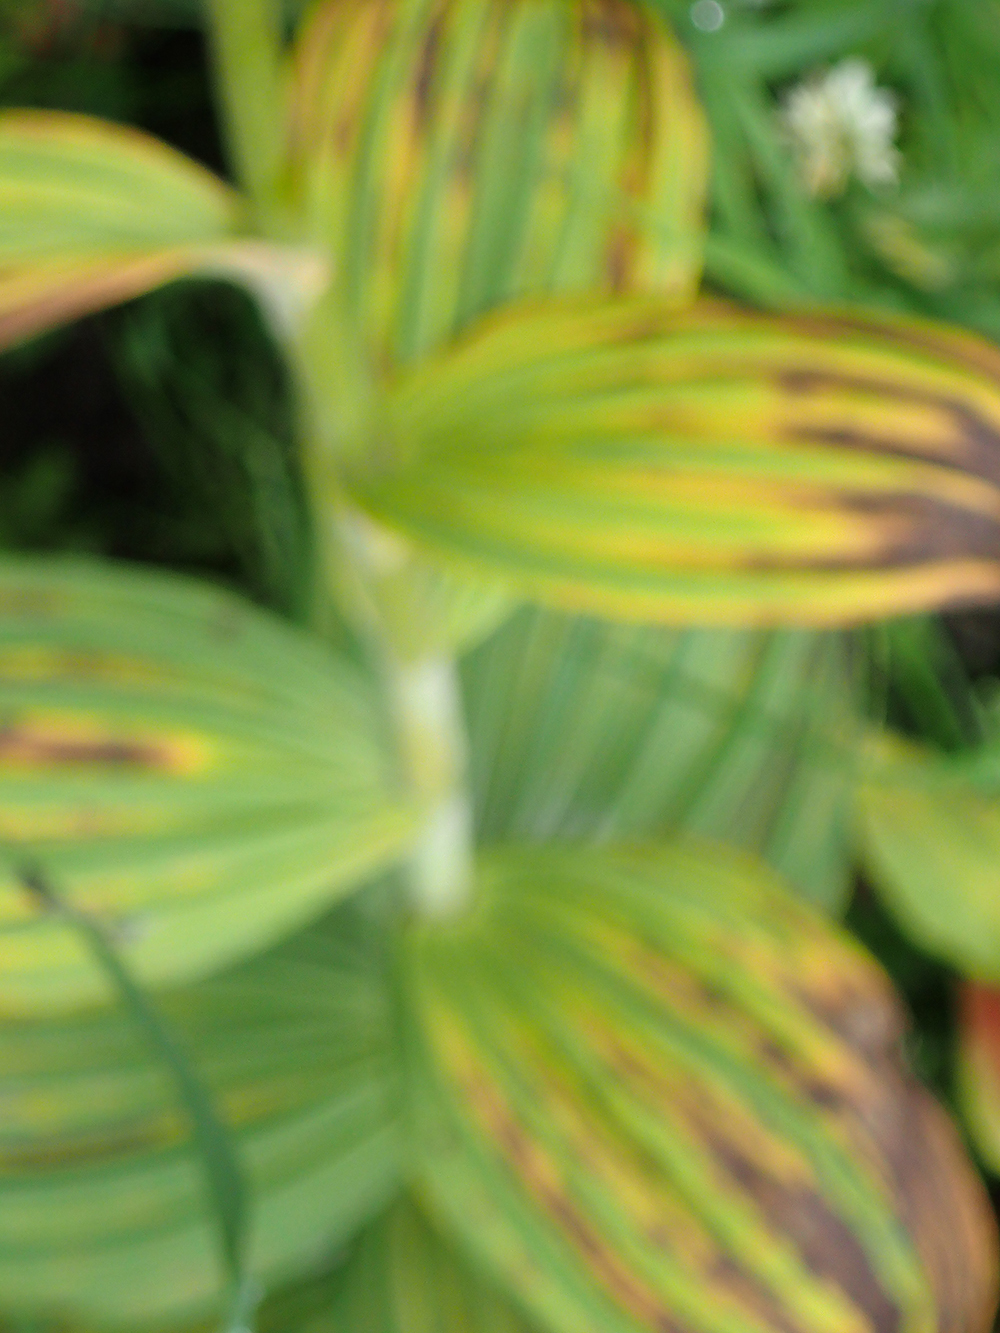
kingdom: Plantae
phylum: Tracheophyta
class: Liliopsida
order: Liliales
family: Melanthiaceae
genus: Veratrum
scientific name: Veratrum viride
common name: American false hellebore
